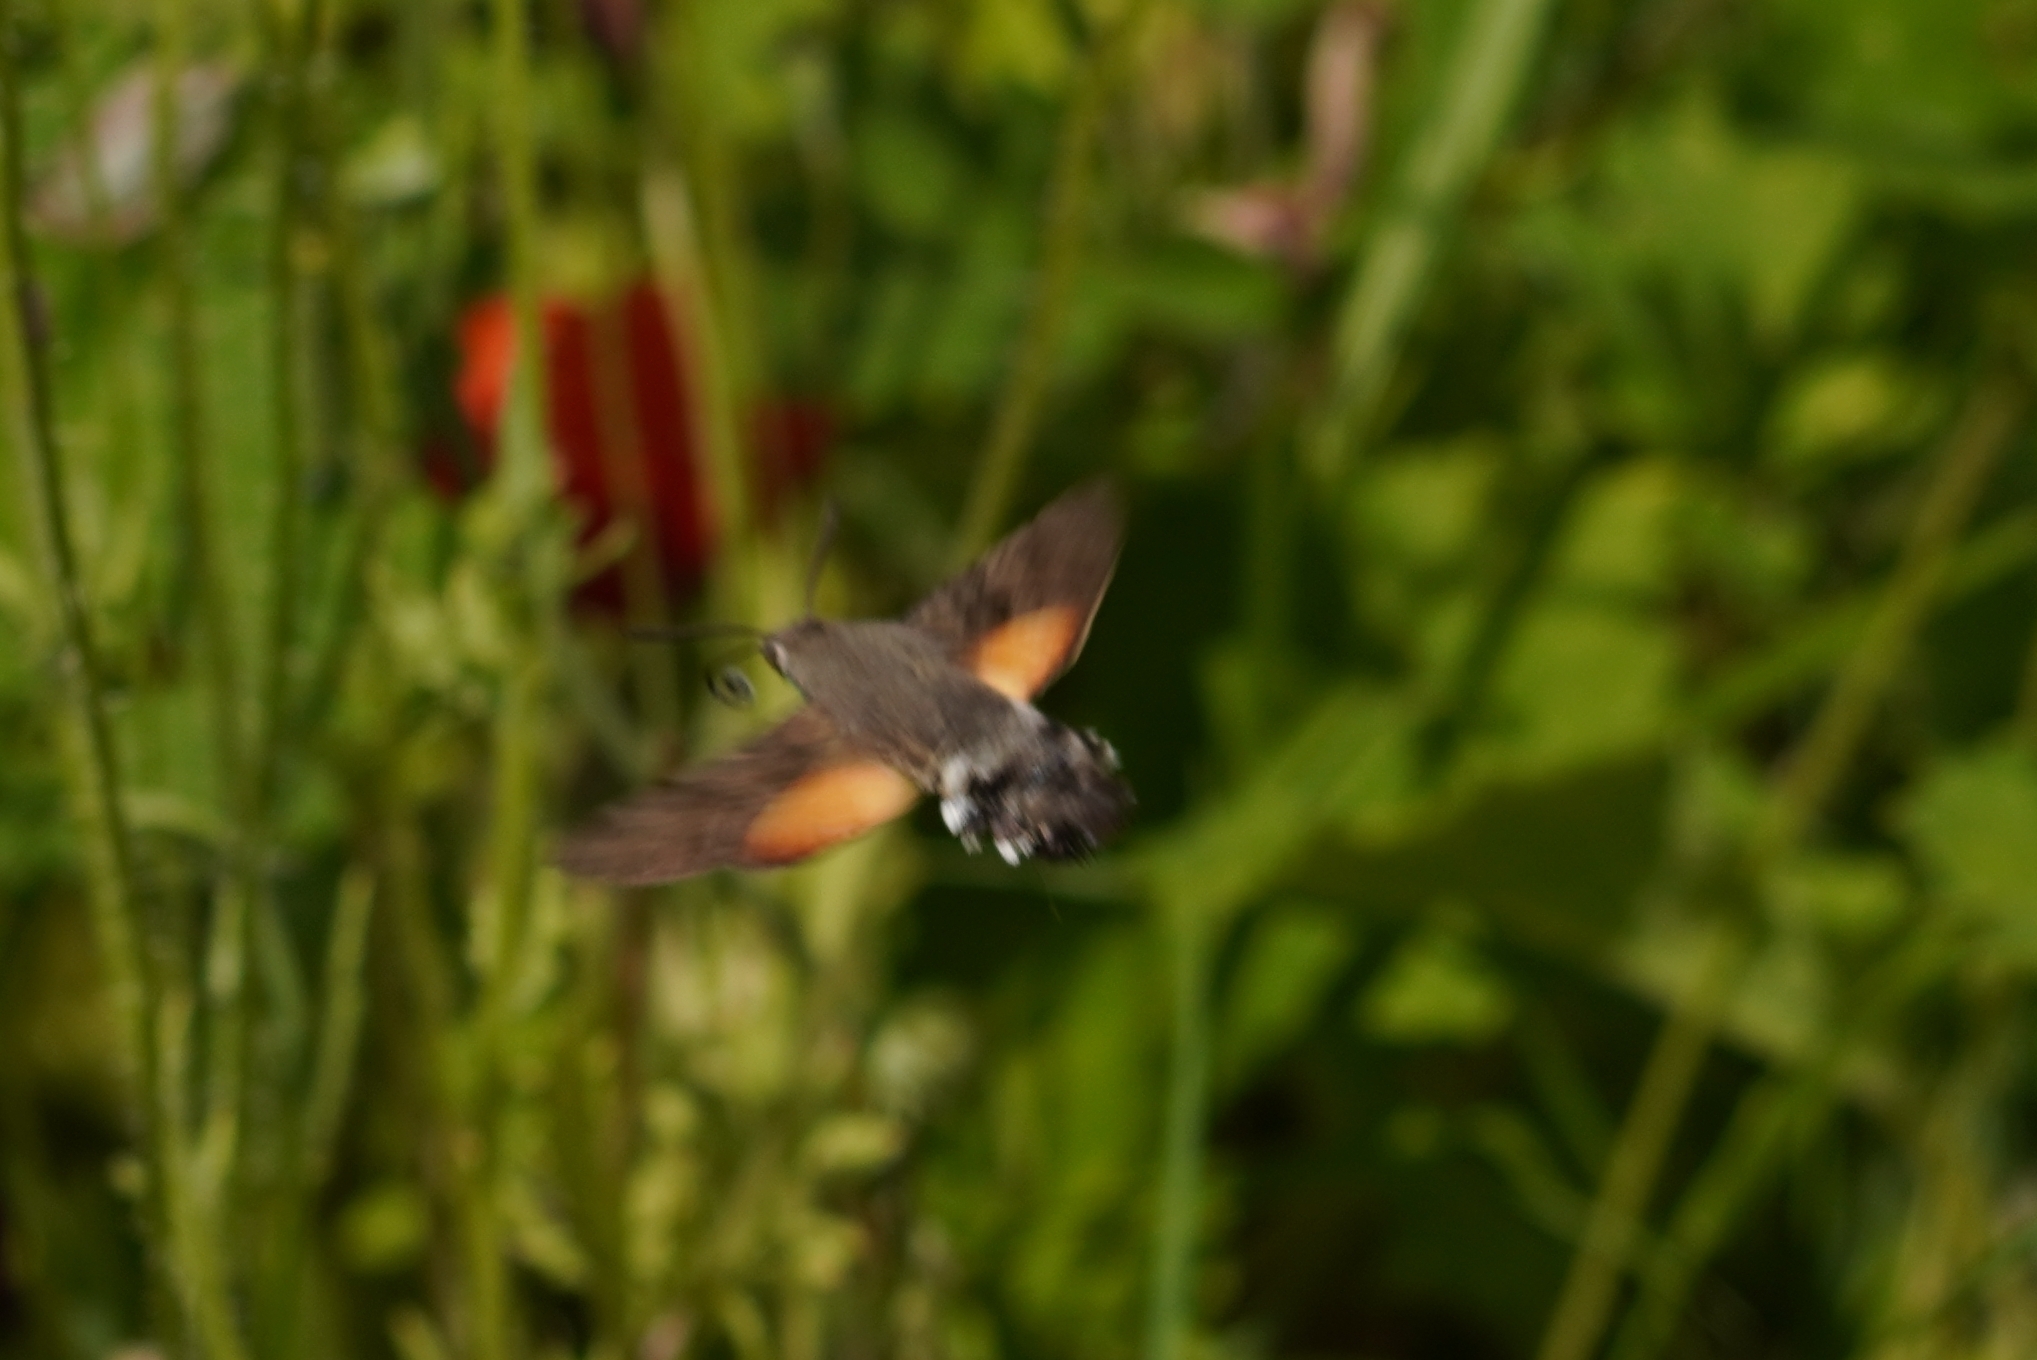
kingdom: Animalia
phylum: Arthropoda
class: Insecta
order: Lepidoptera
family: Sphingidae
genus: Macroglossum
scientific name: Macroglossum stellatarum
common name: Humming-bird hawk-moth
